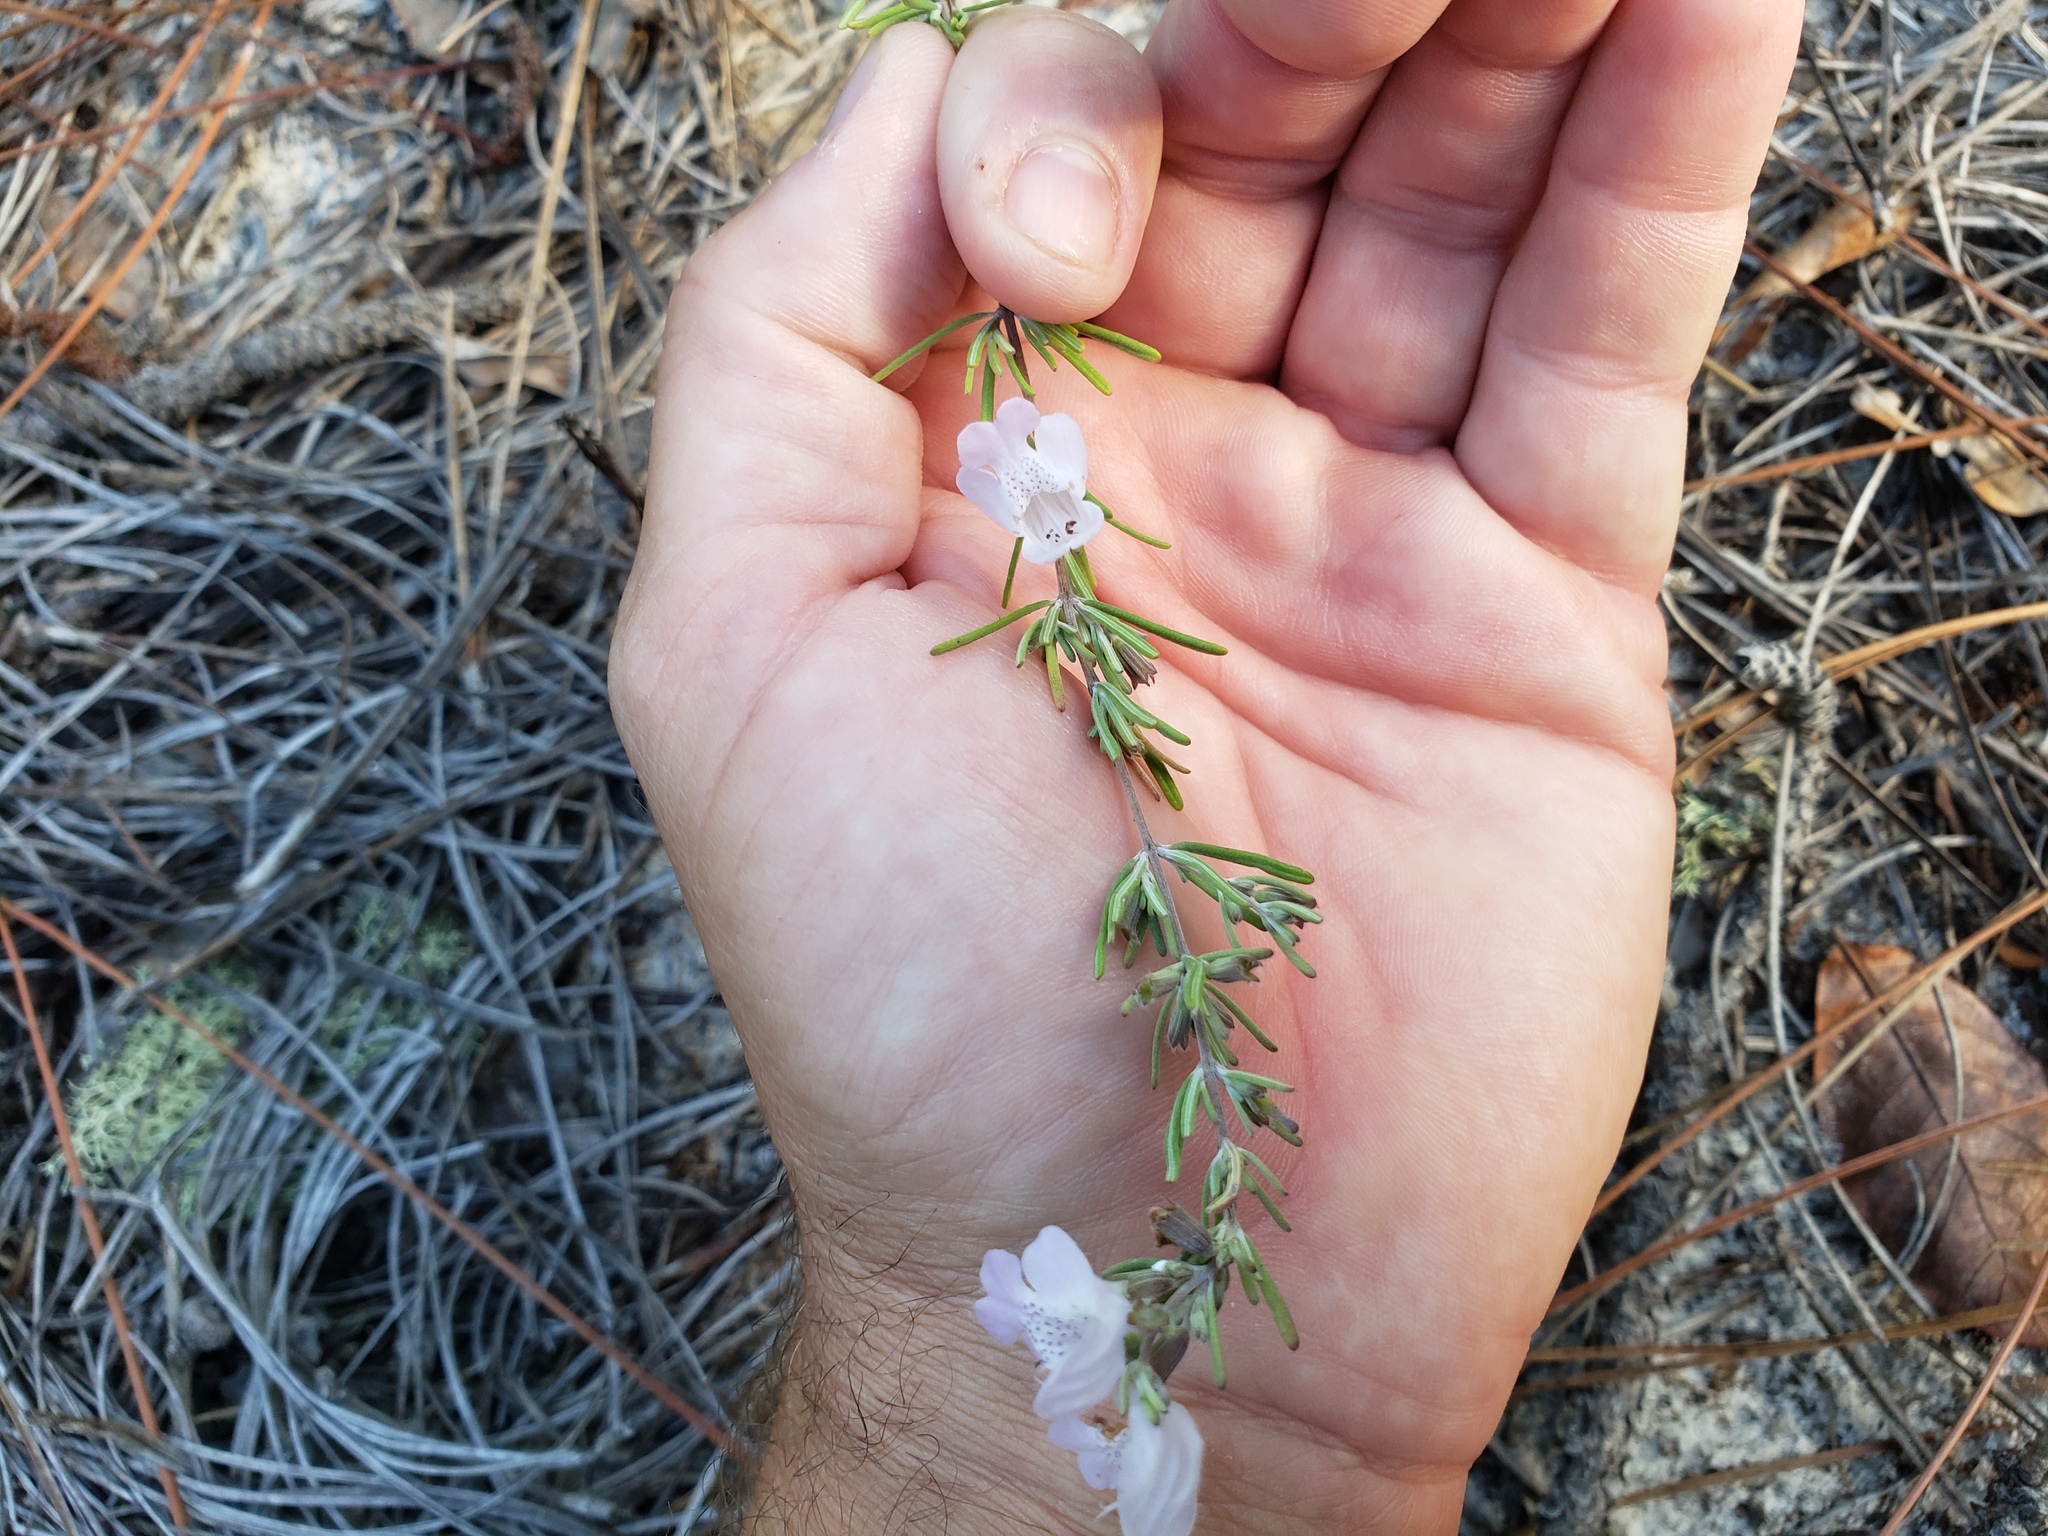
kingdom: Plantae
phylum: Tracheophyta
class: Magnoliopsida
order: Lamiales
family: Lamiaceae
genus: Conradina
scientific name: Conradina canescens
